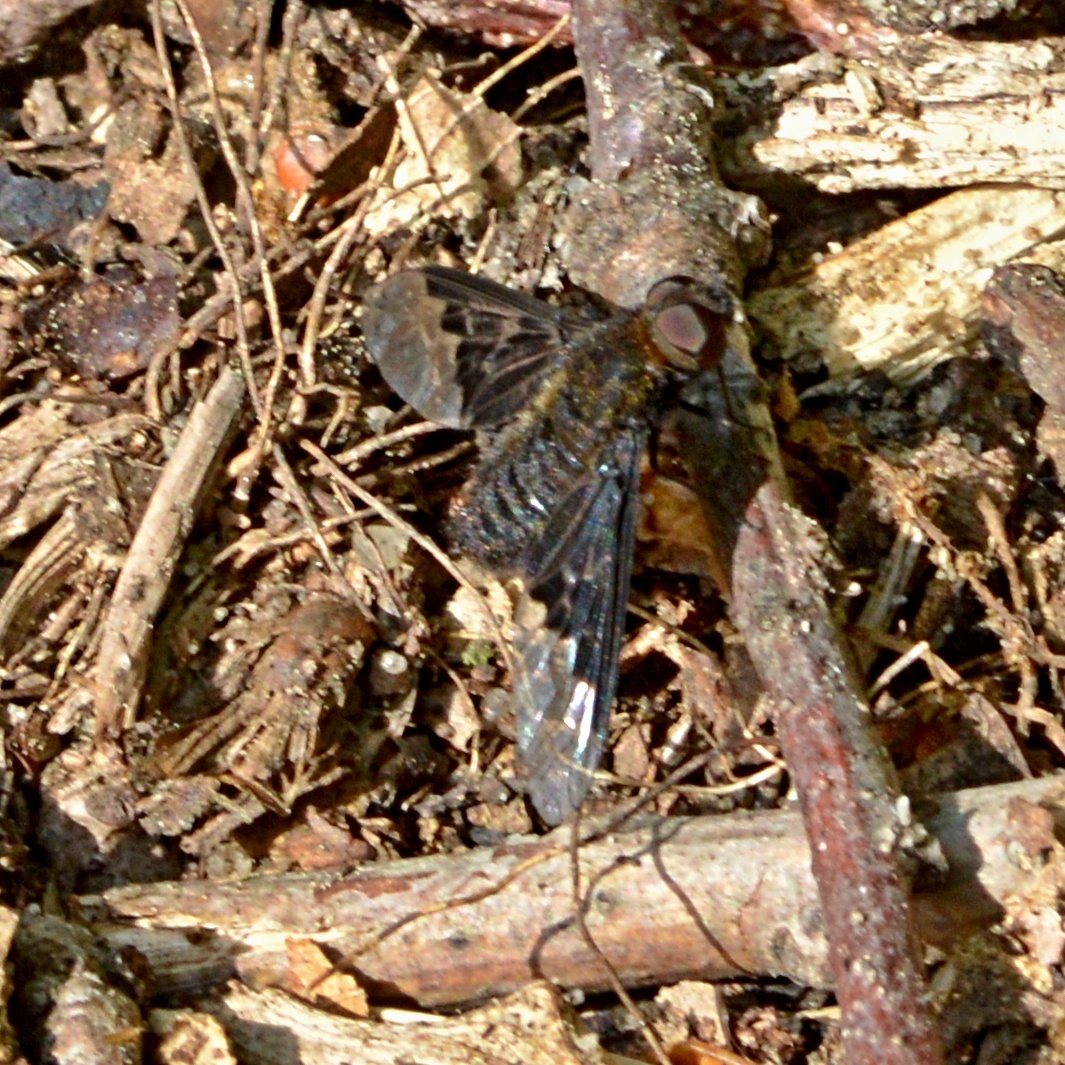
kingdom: Animalia
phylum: Arthropoda
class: Insecta
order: Diptera
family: Bombyliidae
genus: Hemipenthes
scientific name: Hemipenthes morio
